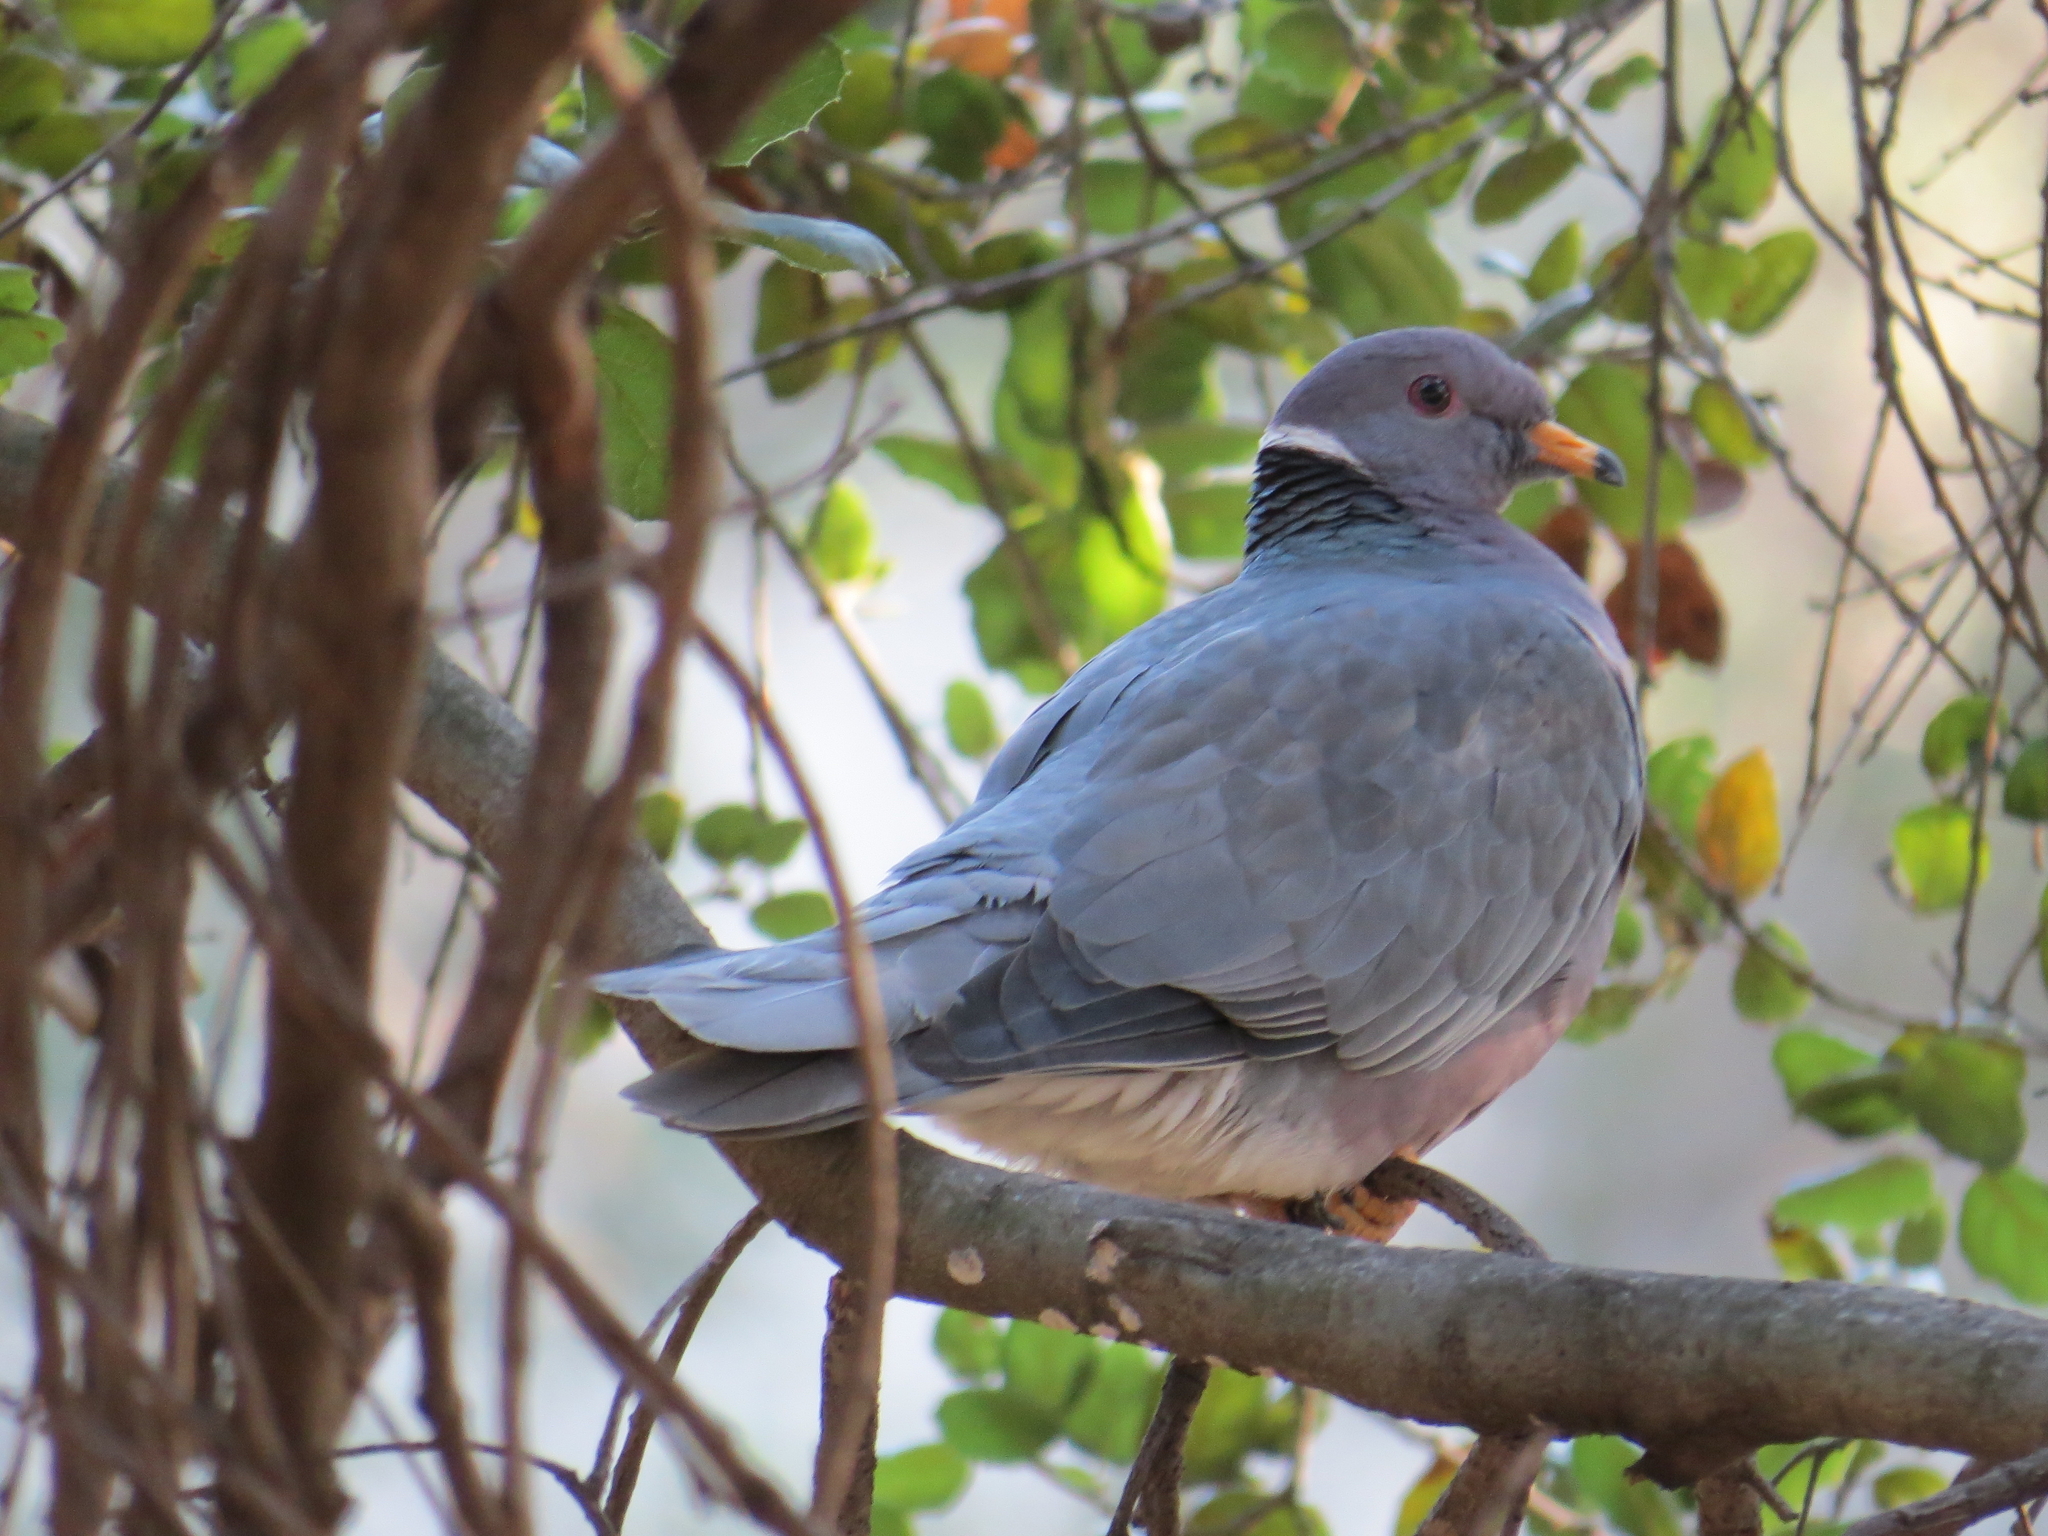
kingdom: Animalia
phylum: Chordata
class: Aves
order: Columbiformes
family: Columbidae
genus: Patagioenas
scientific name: Patagioenas fasciata
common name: Band-tailed pigeon
